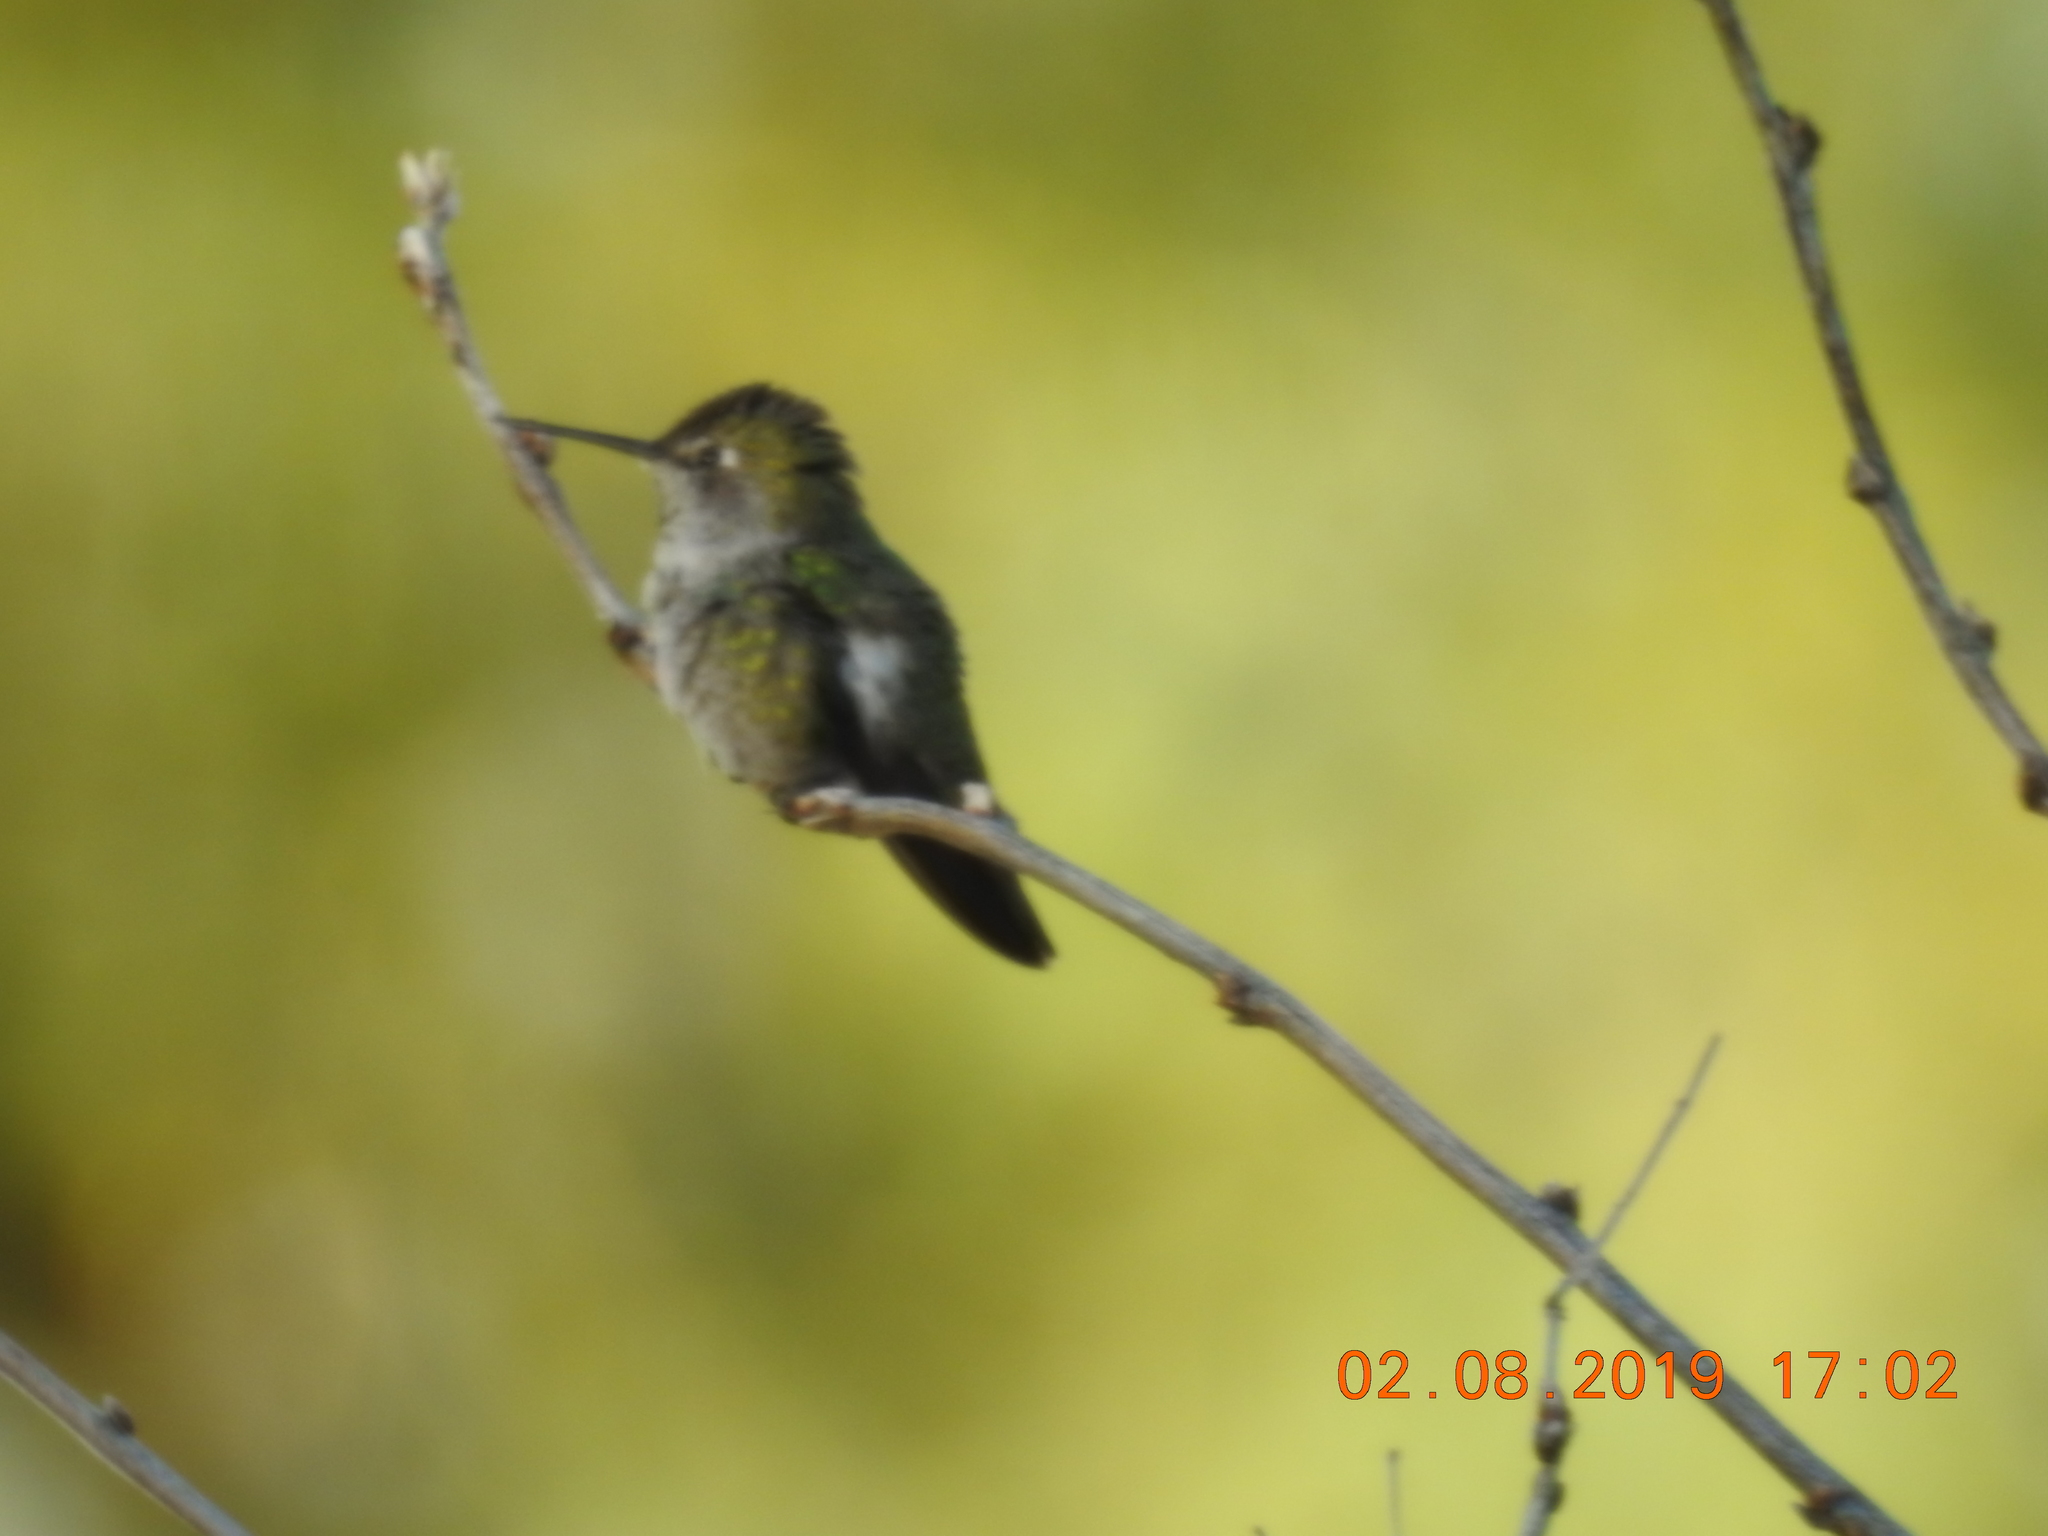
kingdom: Animalia
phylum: Chordata
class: Aves
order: Apodiformes
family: Trochilidae
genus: Calypte
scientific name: Calypte anna
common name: Anna's hummingbird
